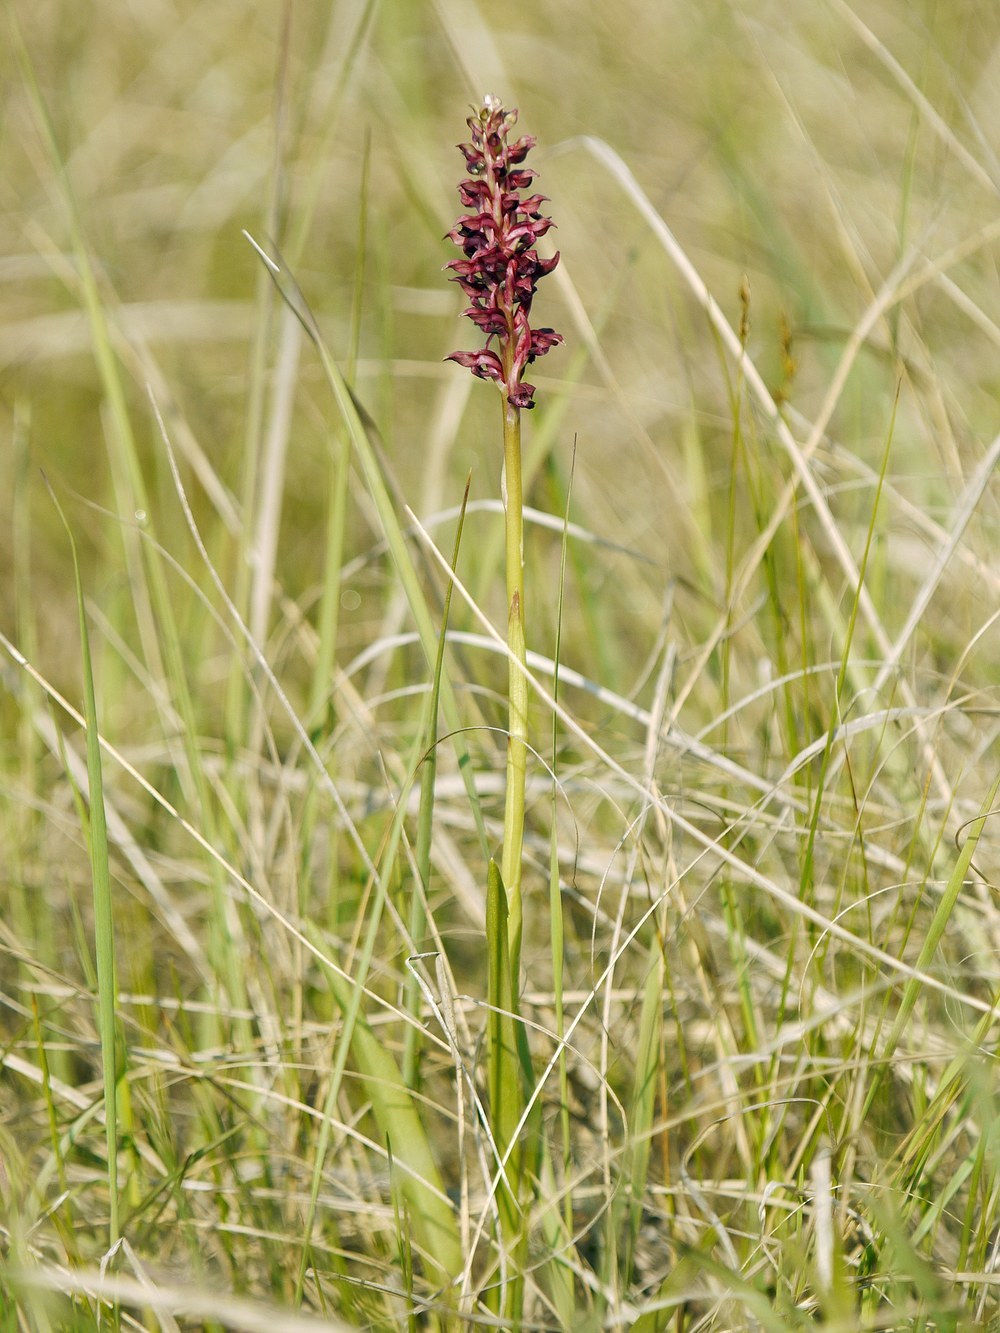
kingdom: Plantae
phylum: Tracheophyta
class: Liliopsida
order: Asparagales
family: Orchidaceae
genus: Anacamptis
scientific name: Anacamptis coriophora
